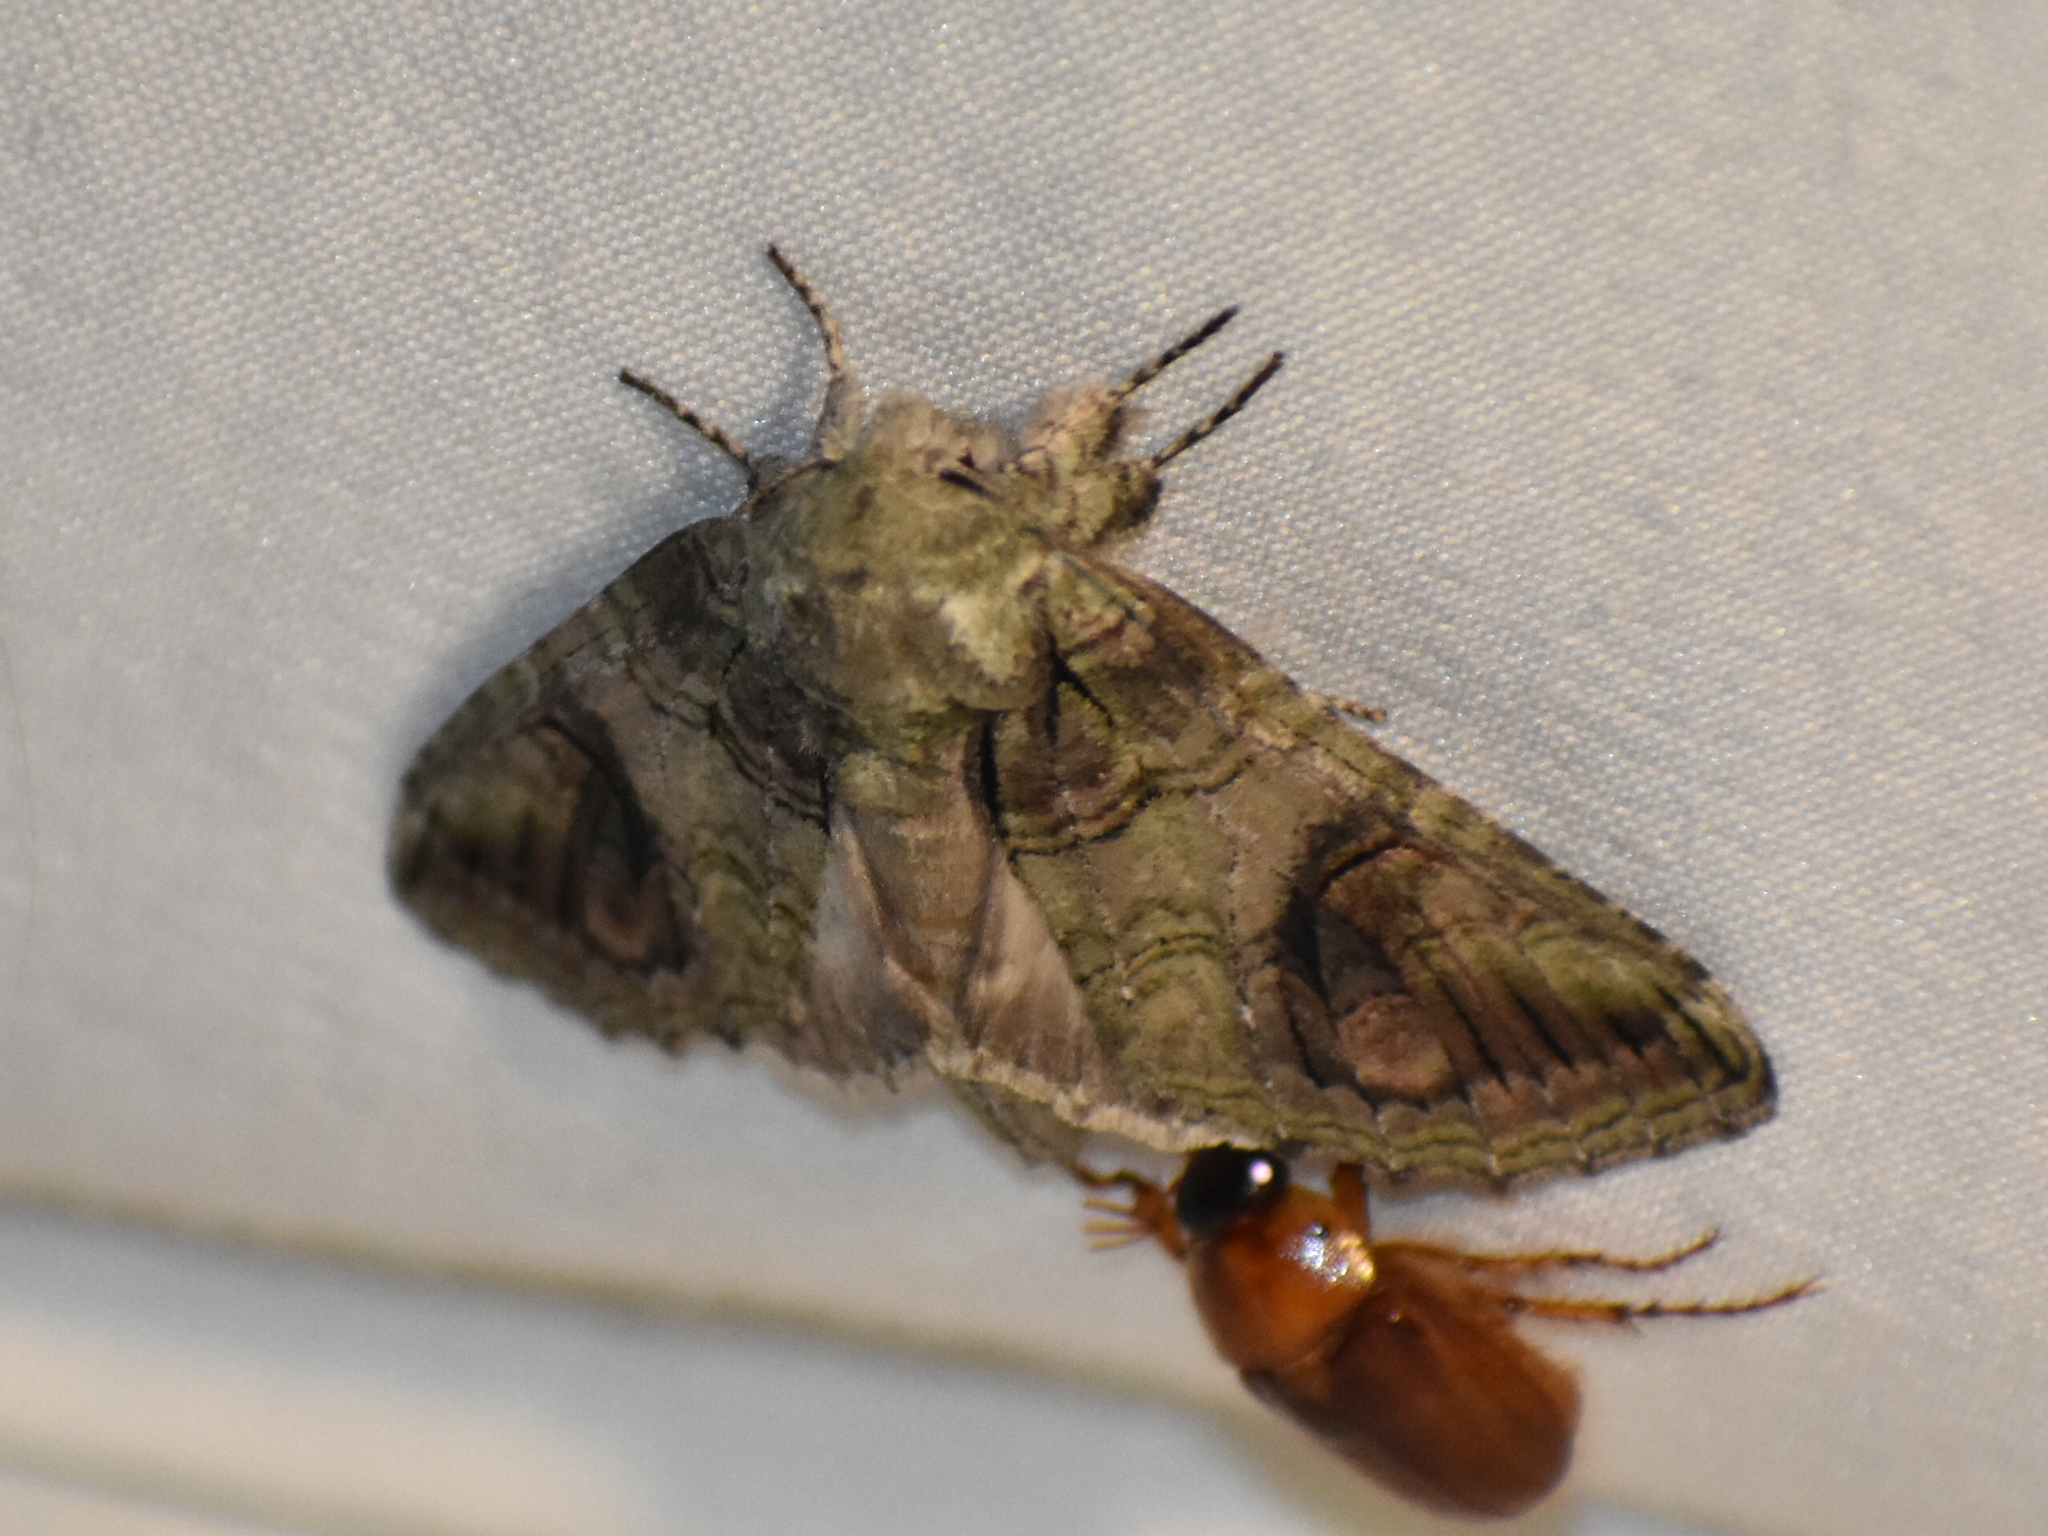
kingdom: Animalia
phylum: Arthropoda
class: Insecta
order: Lepidoptera
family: Notodontidae
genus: Heterocampa
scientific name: Heterocampa obliqua
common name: Oblique heterocampa
